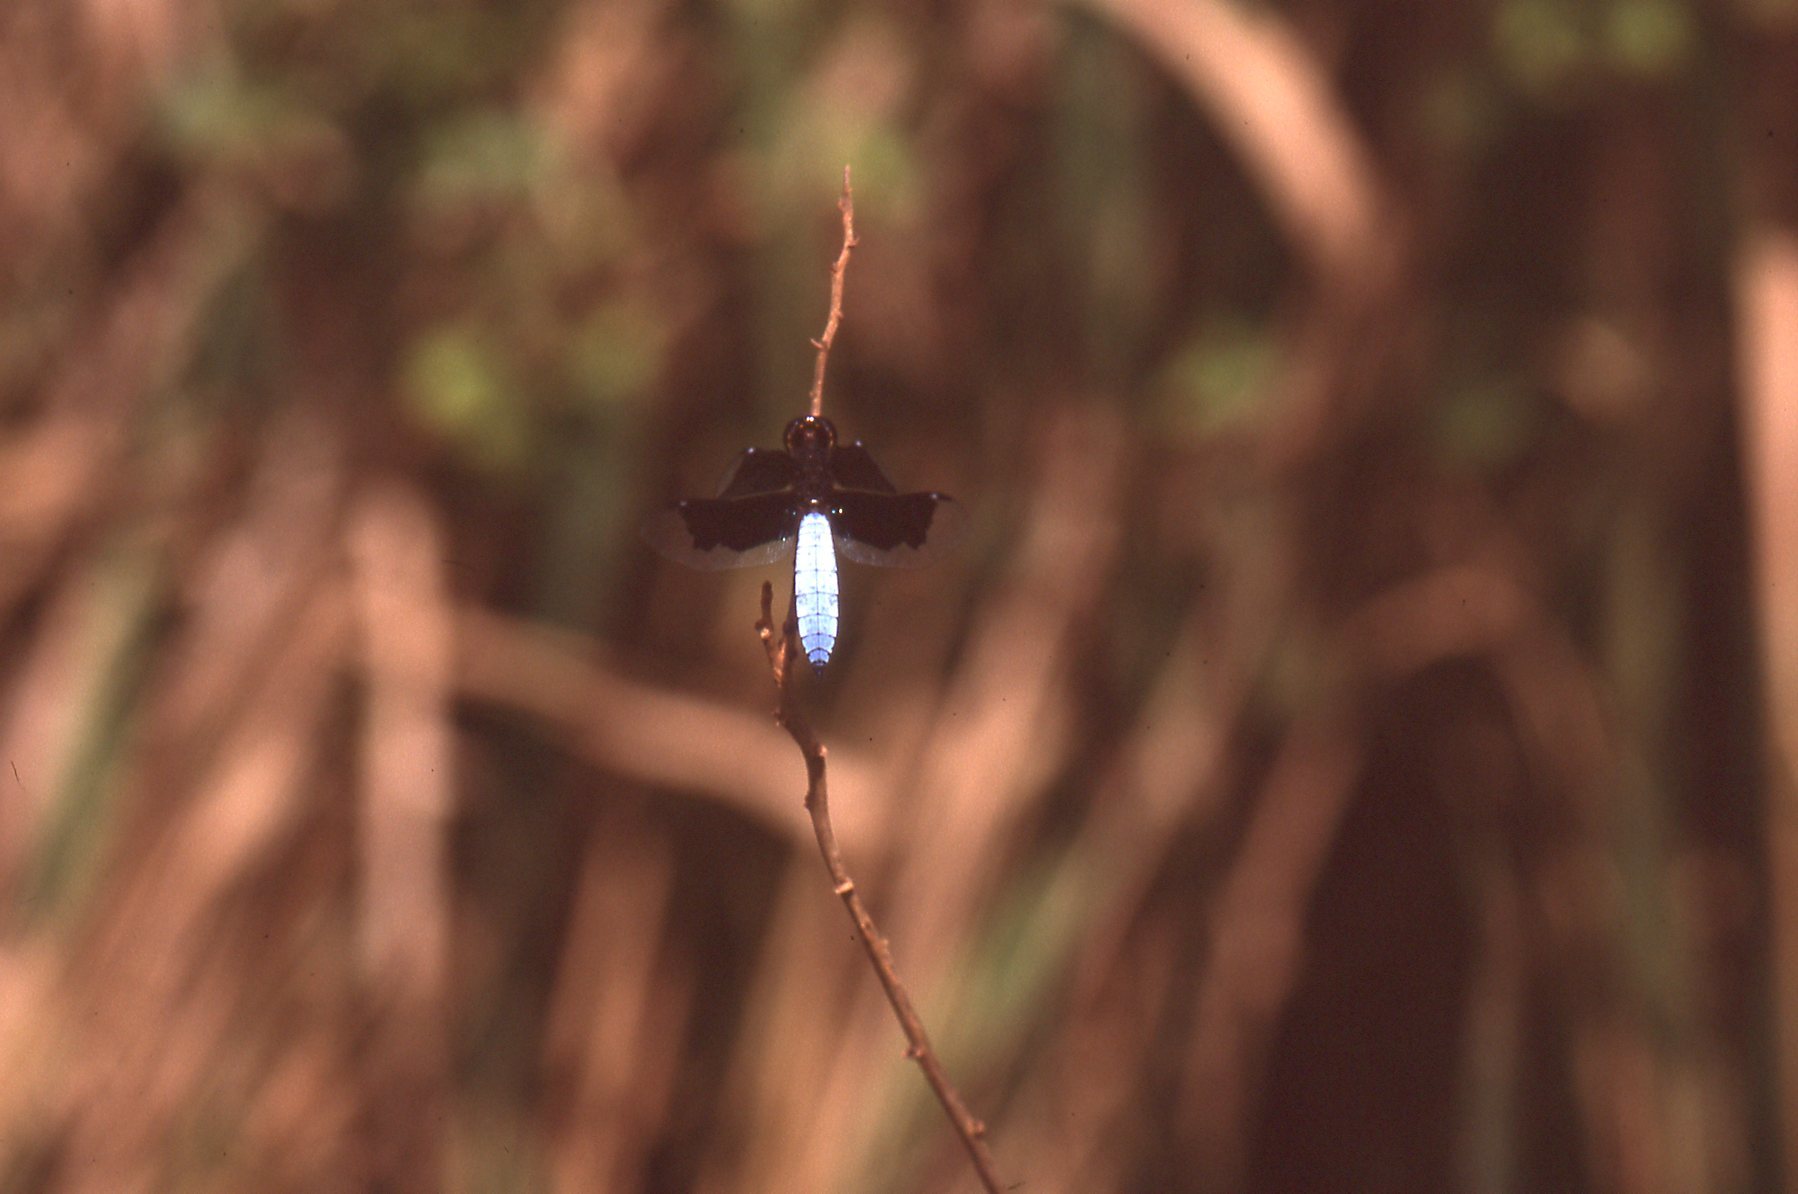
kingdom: Animalia
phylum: Arthropoda
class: Insecta
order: Odonata
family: Libellulidae
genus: Palpopleura
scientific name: Palpopleura lucia
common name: Lucia widow
